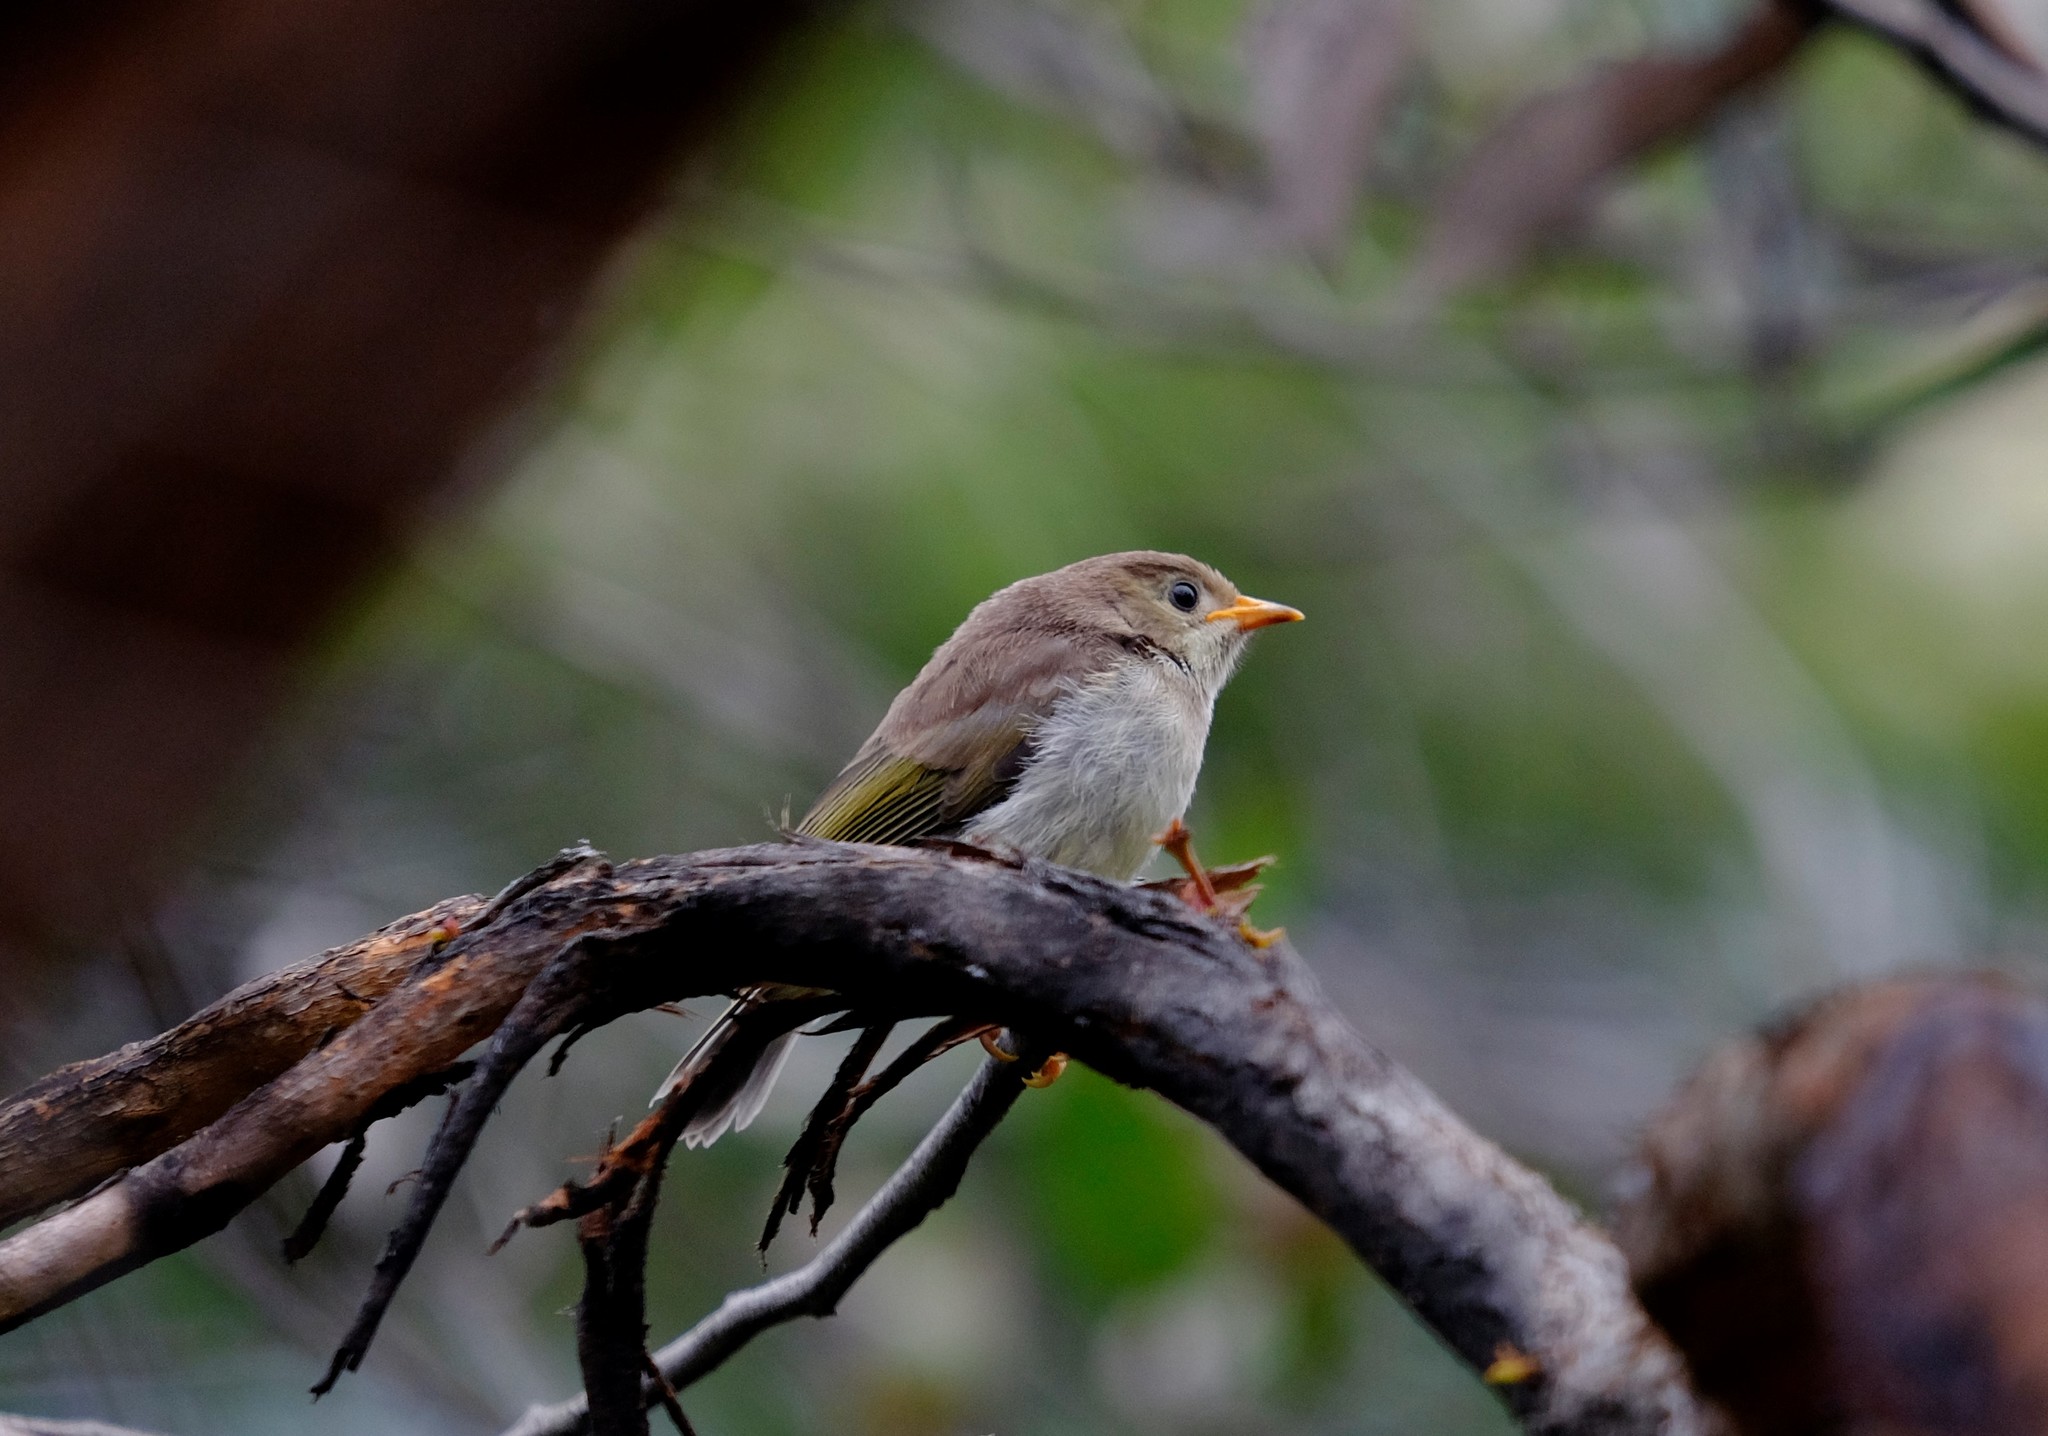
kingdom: Animalia
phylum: Chordata
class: Aves
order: Passeriformes
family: Meliphagidae
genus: Melithreptus
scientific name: Melithreptus brevirostris
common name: Brown-headed honeyeater
